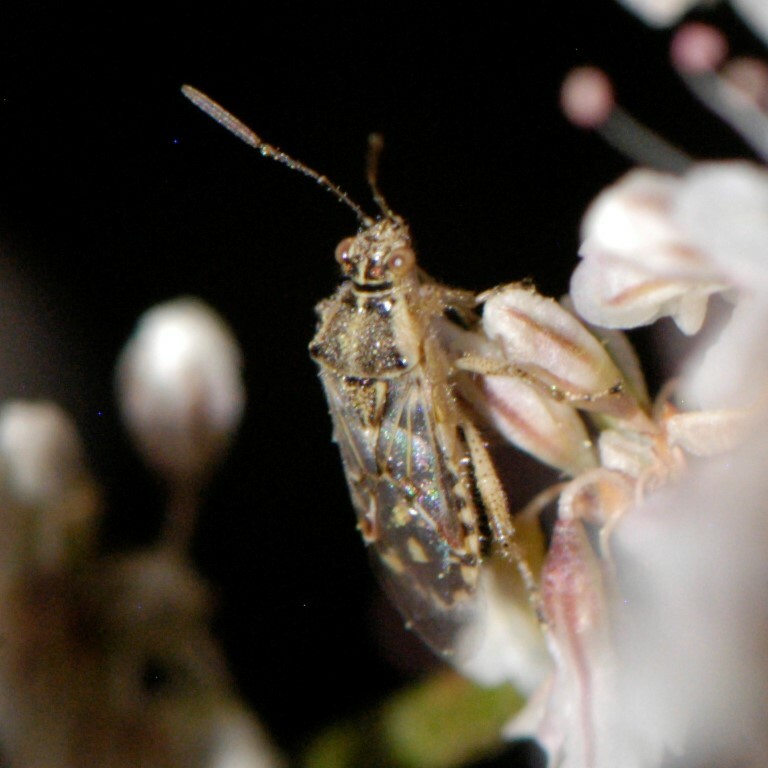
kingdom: Animalia
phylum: Arthropoda
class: Insecta
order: Hemiptera
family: Rhopalidae
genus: Liorhyssus
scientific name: Liorhyssus hyalinus
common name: Scentless plant bug
